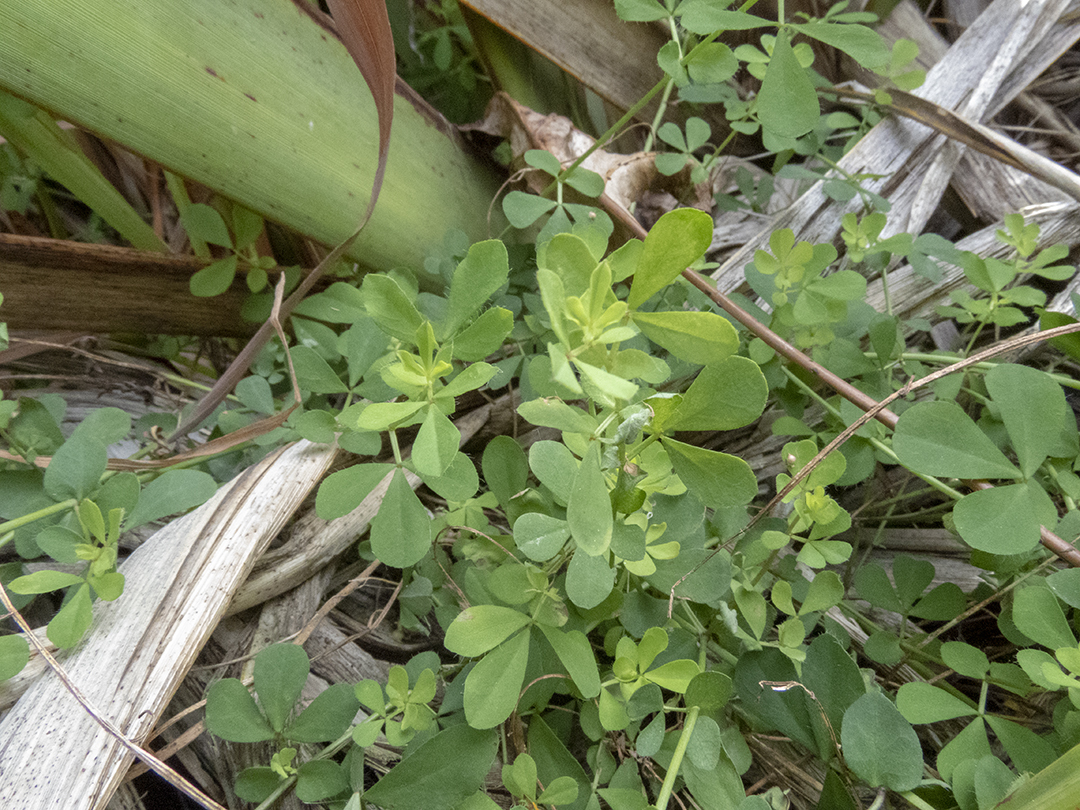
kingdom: Plantae
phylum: Tracheophyta
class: Magnoliopsida
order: Fabales
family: Fabaceae
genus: Lotus
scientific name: Lotus pedunculatus
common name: Greater birdsfoot-trefoil
